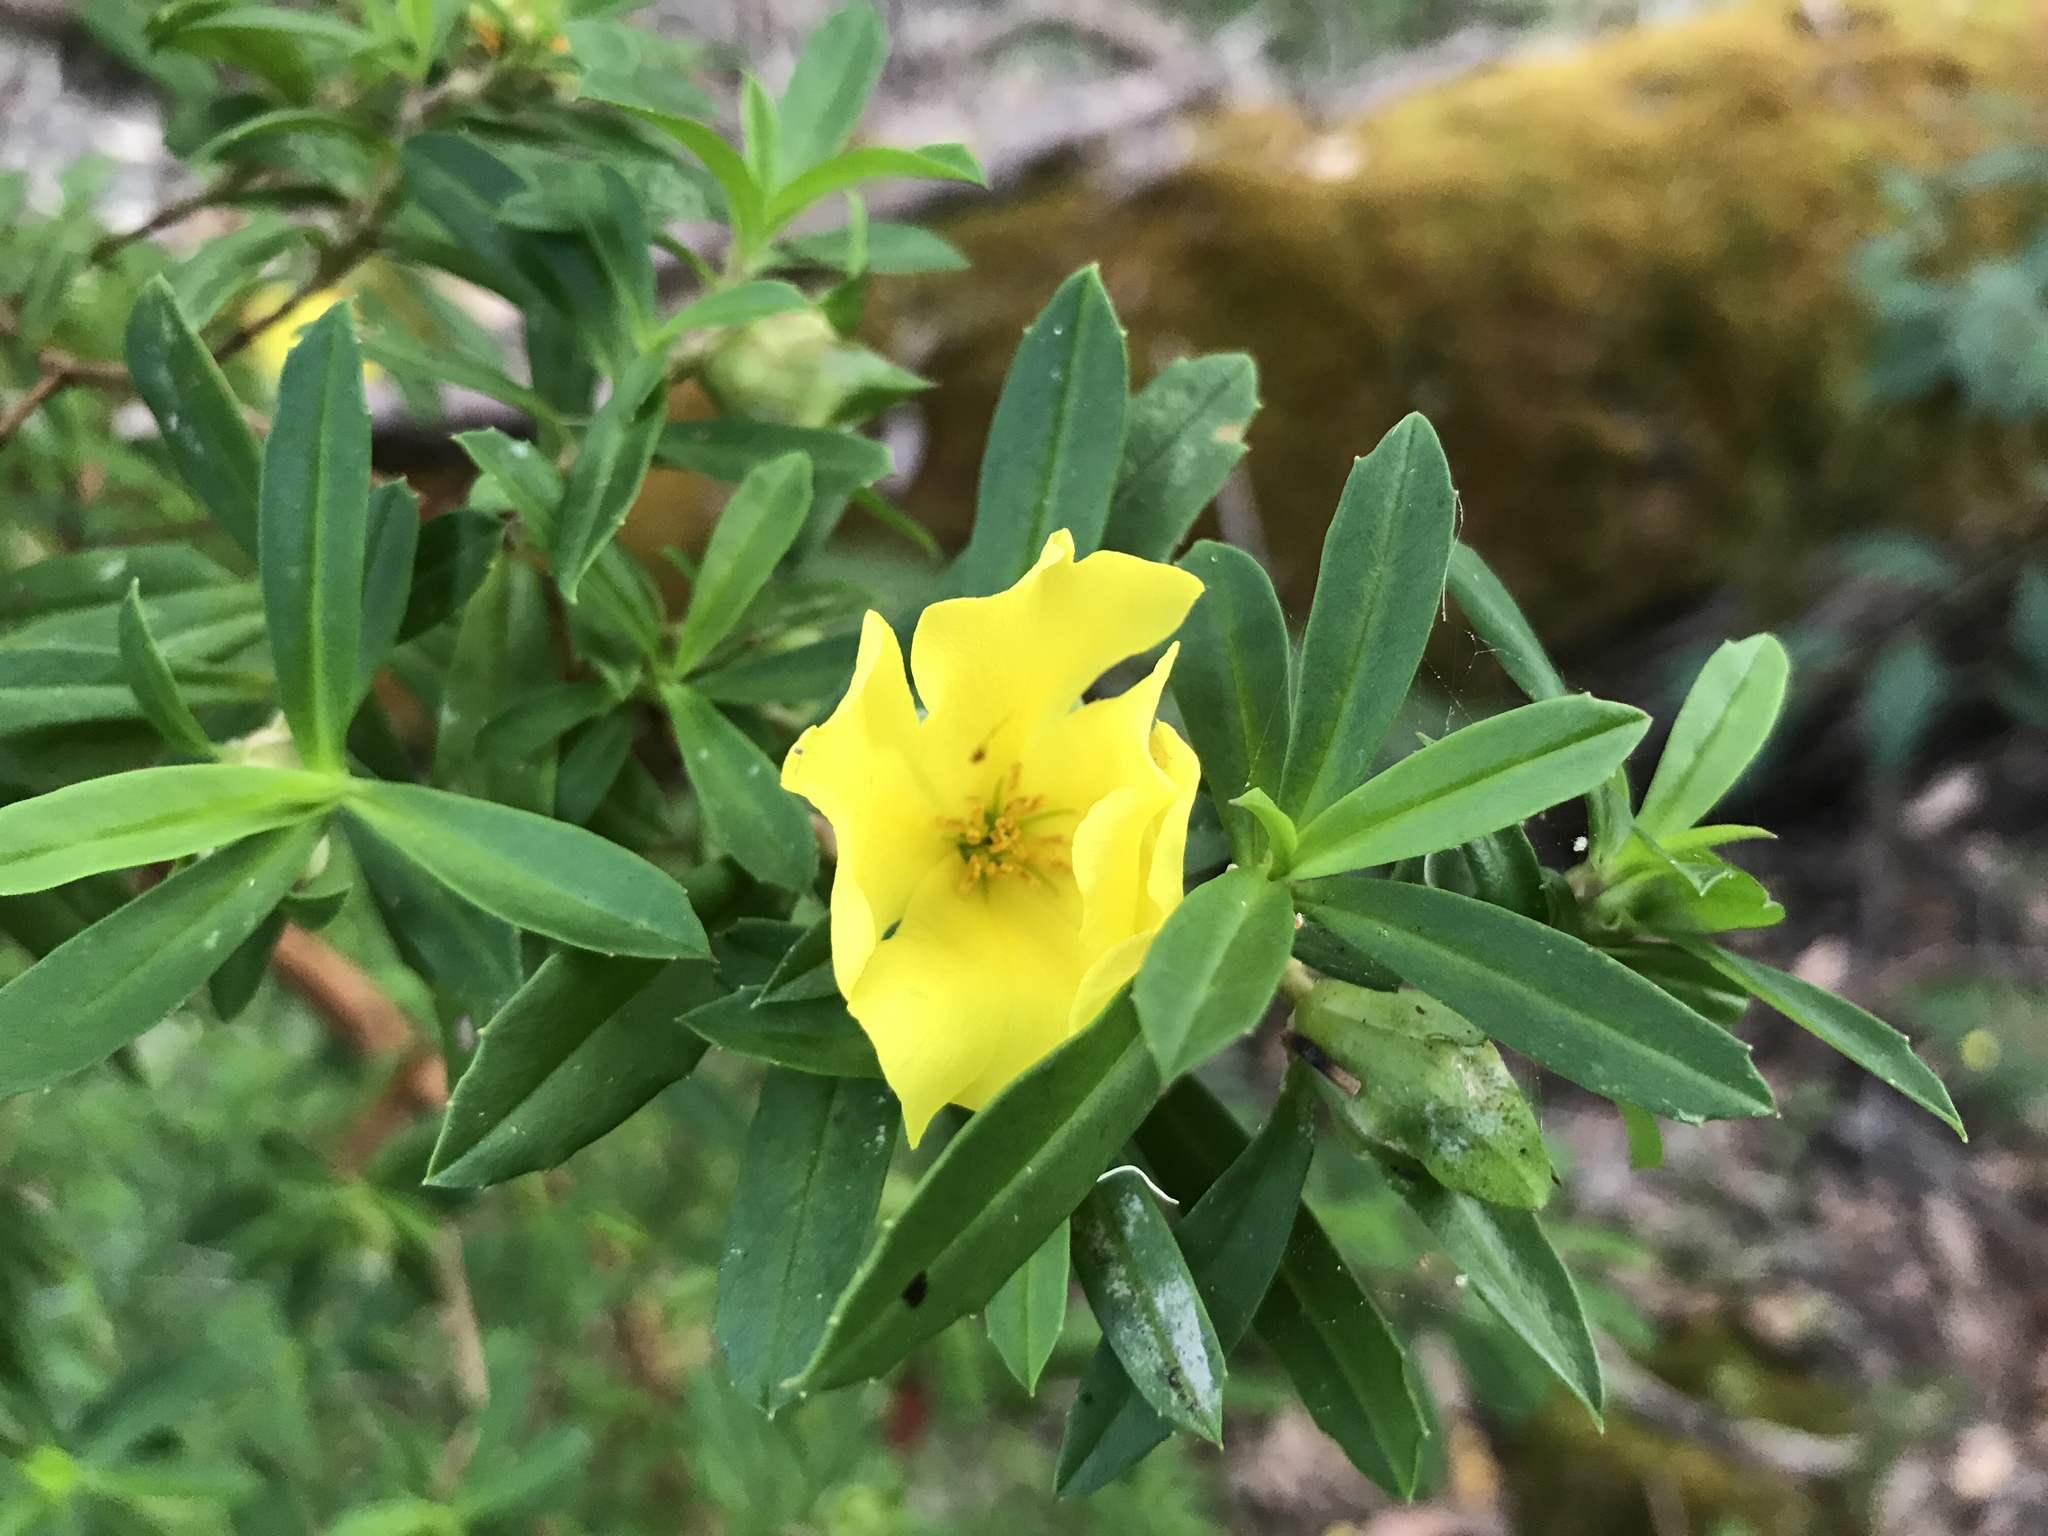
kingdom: Plantae
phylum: Tracheophyta
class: Magnoliopsida
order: Dilleniales
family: Dilleniaceae
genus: Hibbertia
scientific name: Hibbertia cuneiformis
